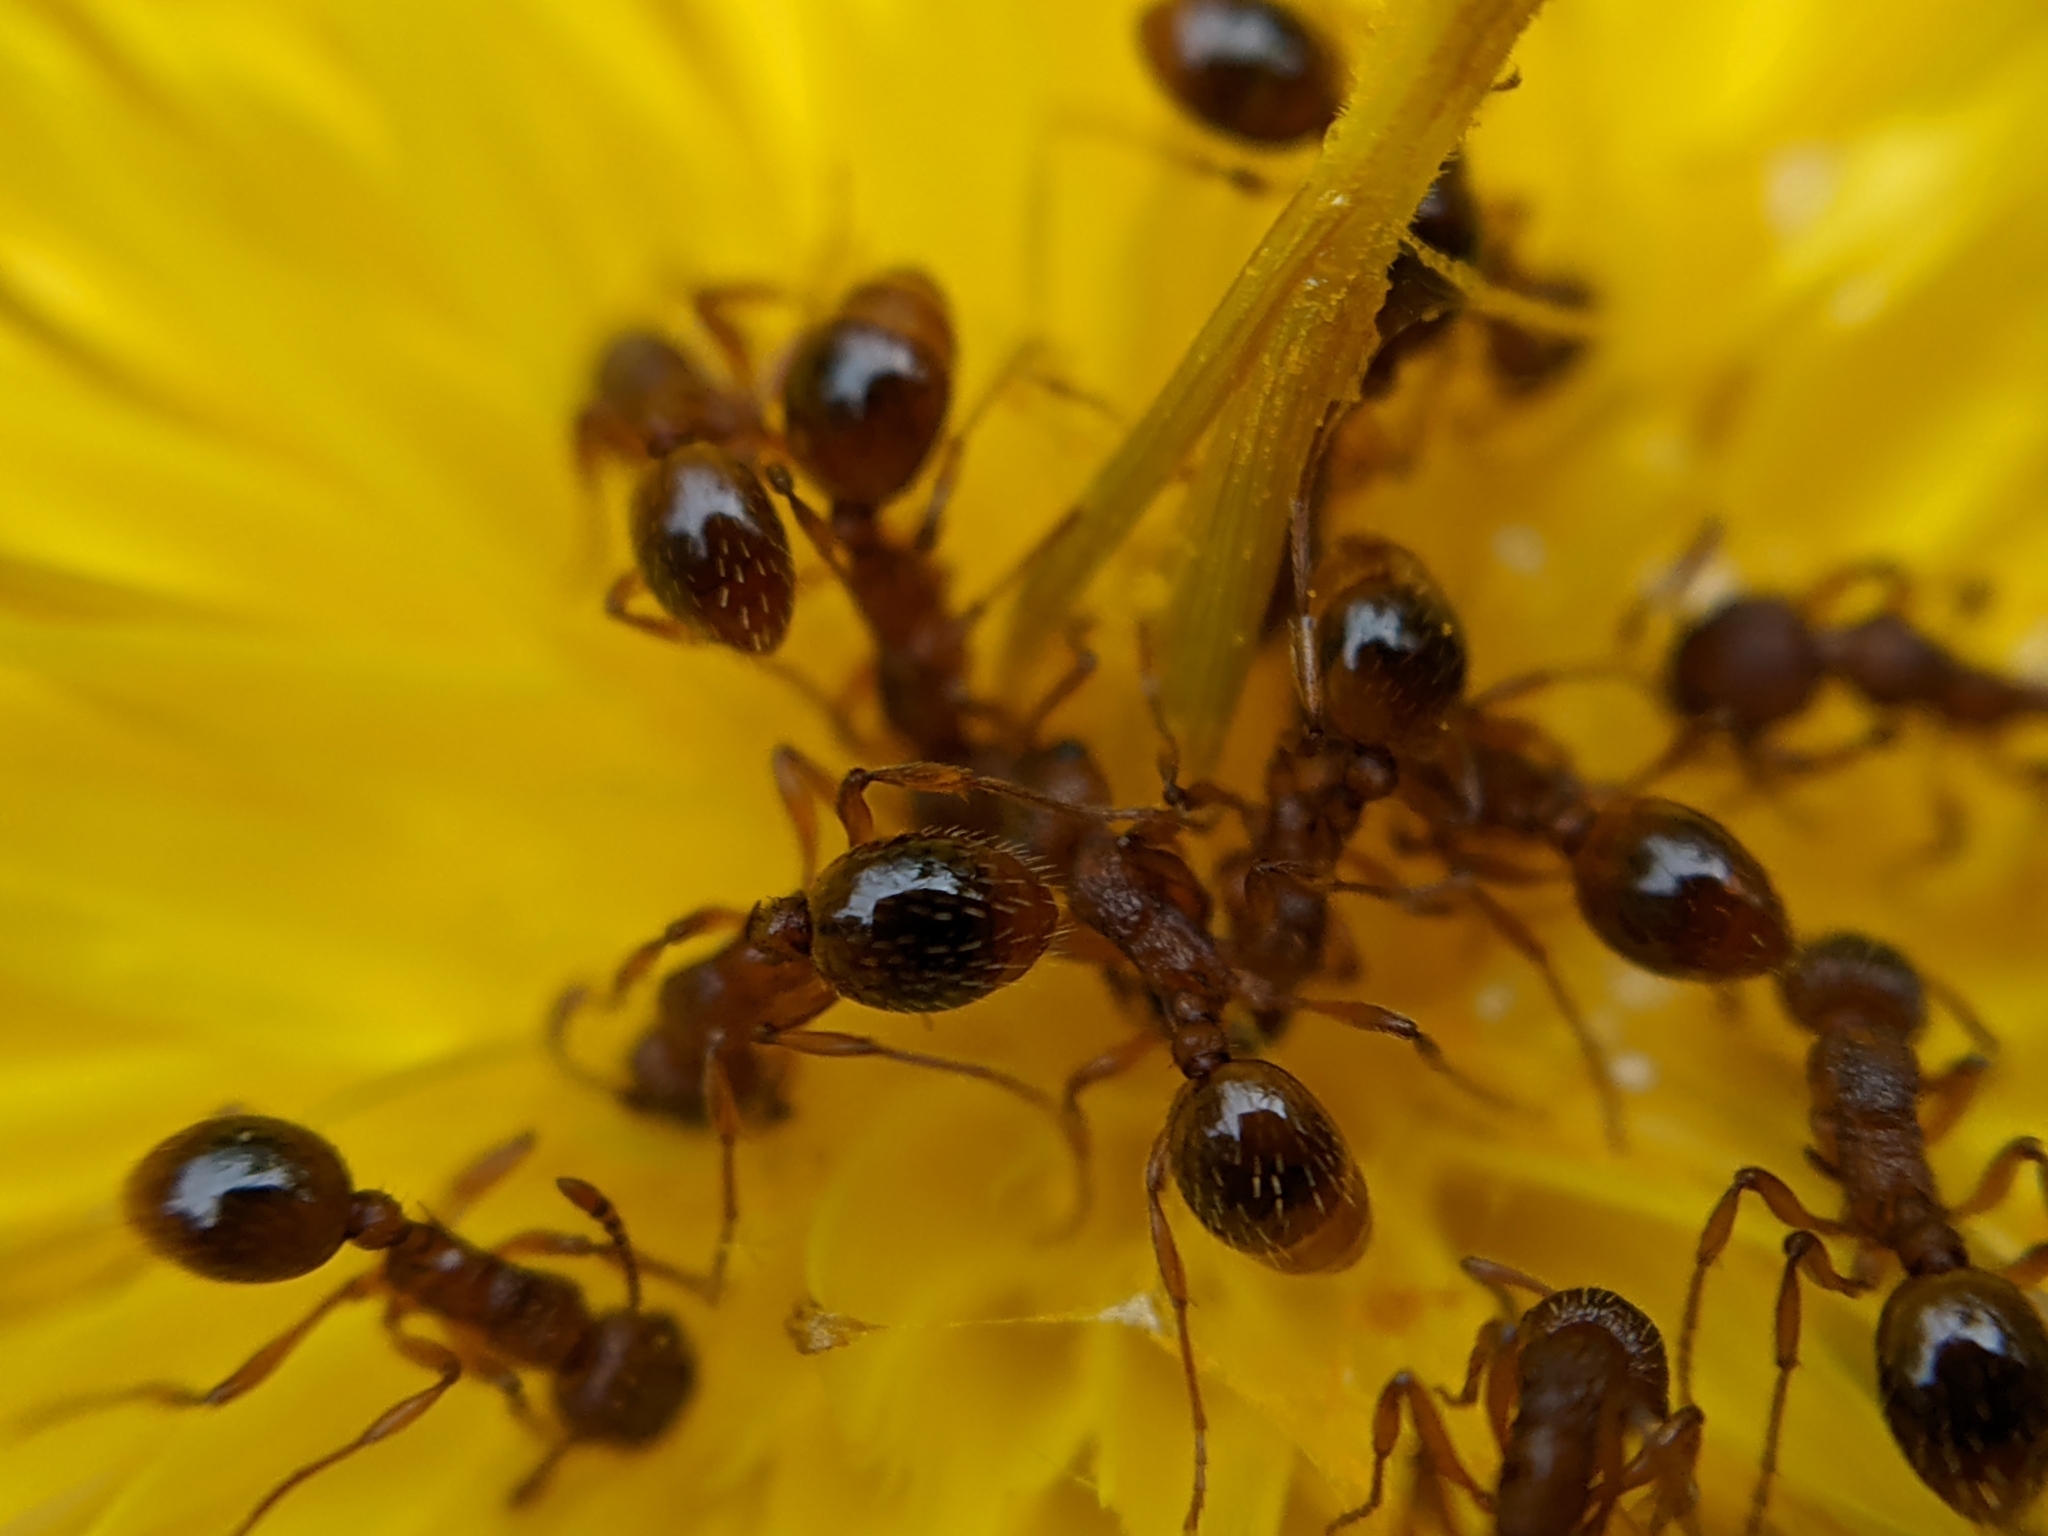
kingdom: Animalia
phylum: Arthropoda
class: Insecta
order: Hymenoptera
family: Formicidae
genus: Myrmica
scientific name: Myrmica ruginodis
